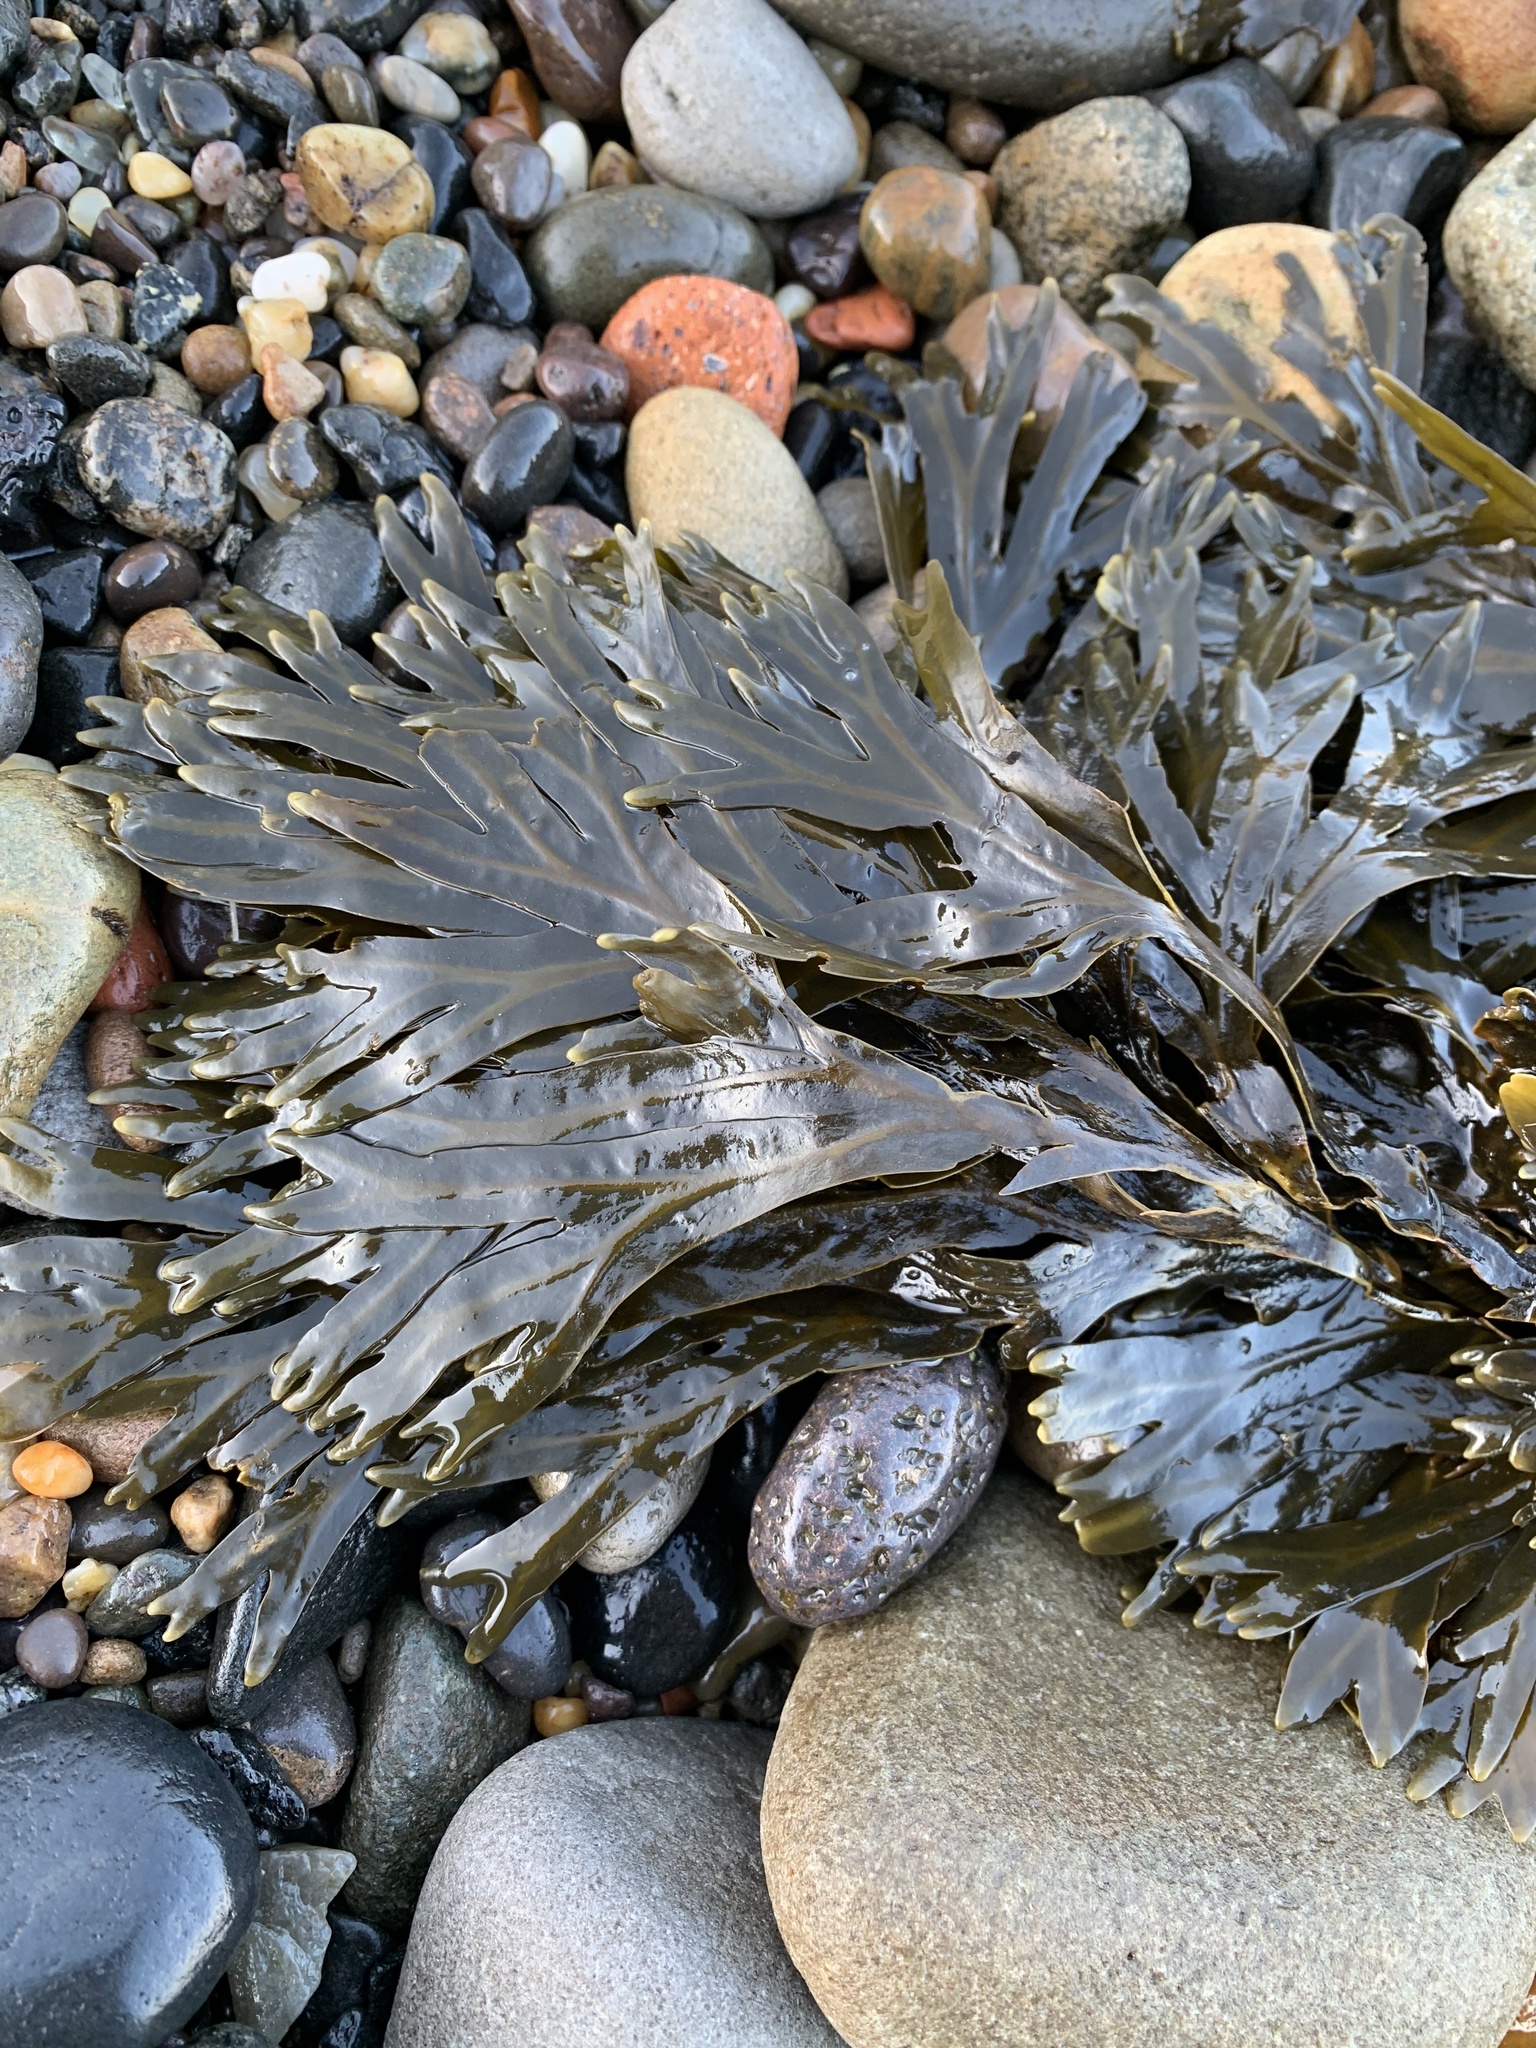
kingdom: Chromista
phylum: Ochrophyta
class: Phaeophyceae
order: Fucales
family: Fucaceae
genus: Fucus
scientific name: Fucus vesiculosus
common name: Bladder wrack
